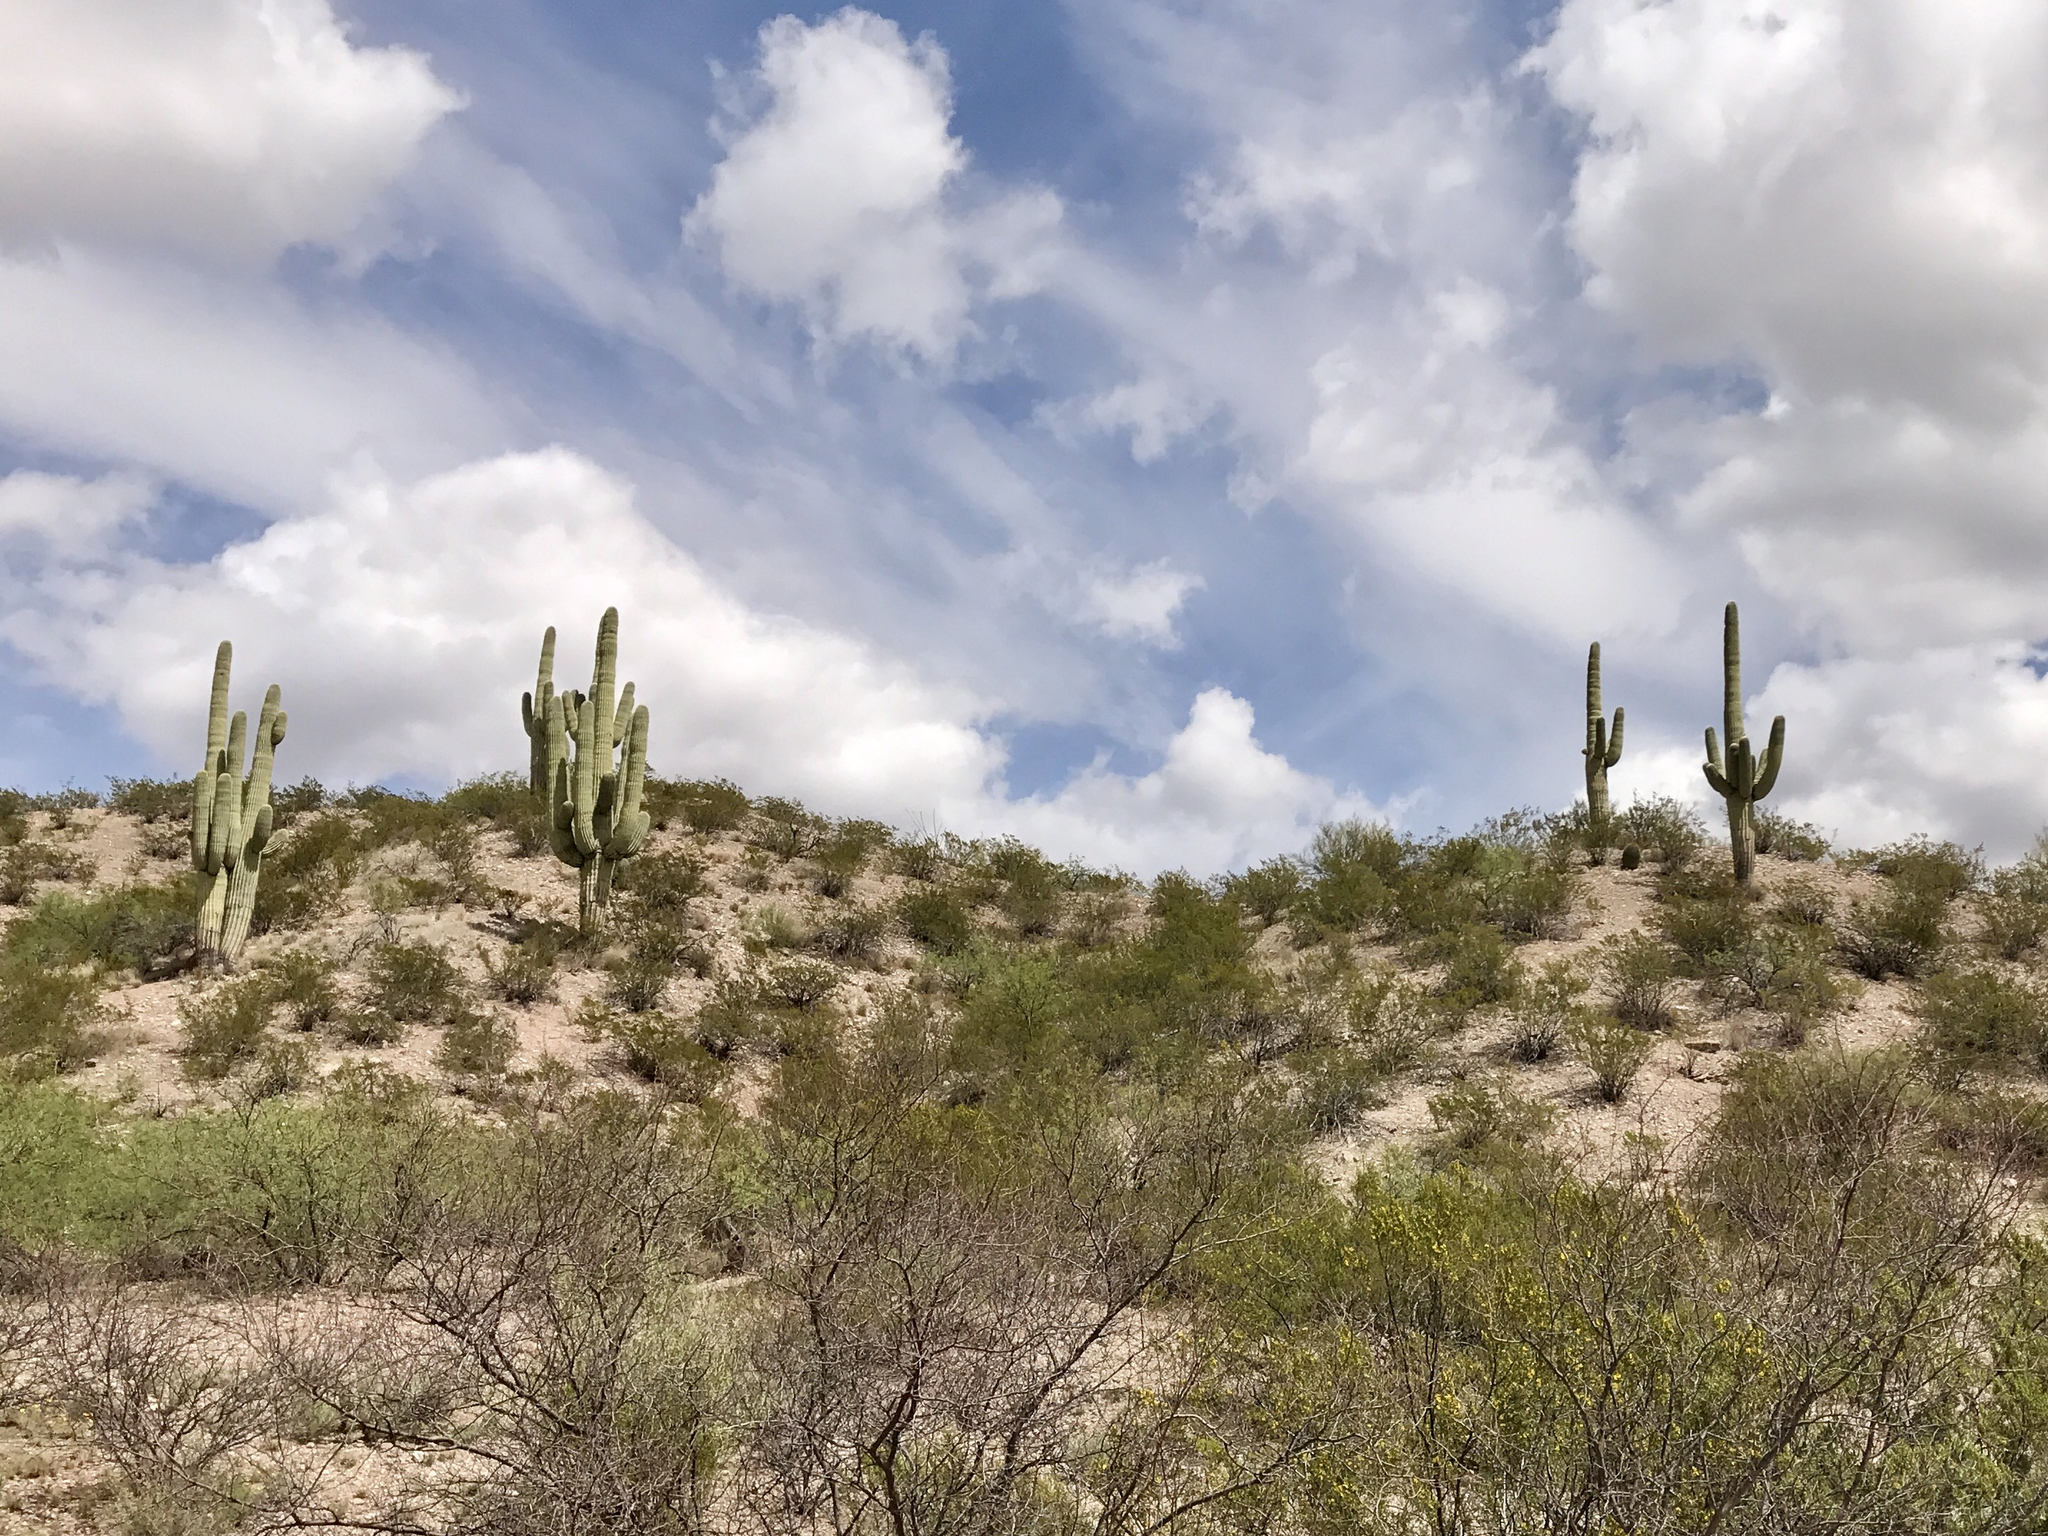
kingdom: Plantae
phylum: Tracheophyta
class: Magnoliopsida
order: Caryophyllales
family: Cactaceae
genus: Carnegiea
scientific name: Carnegiea gigantea
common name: Saguaro
